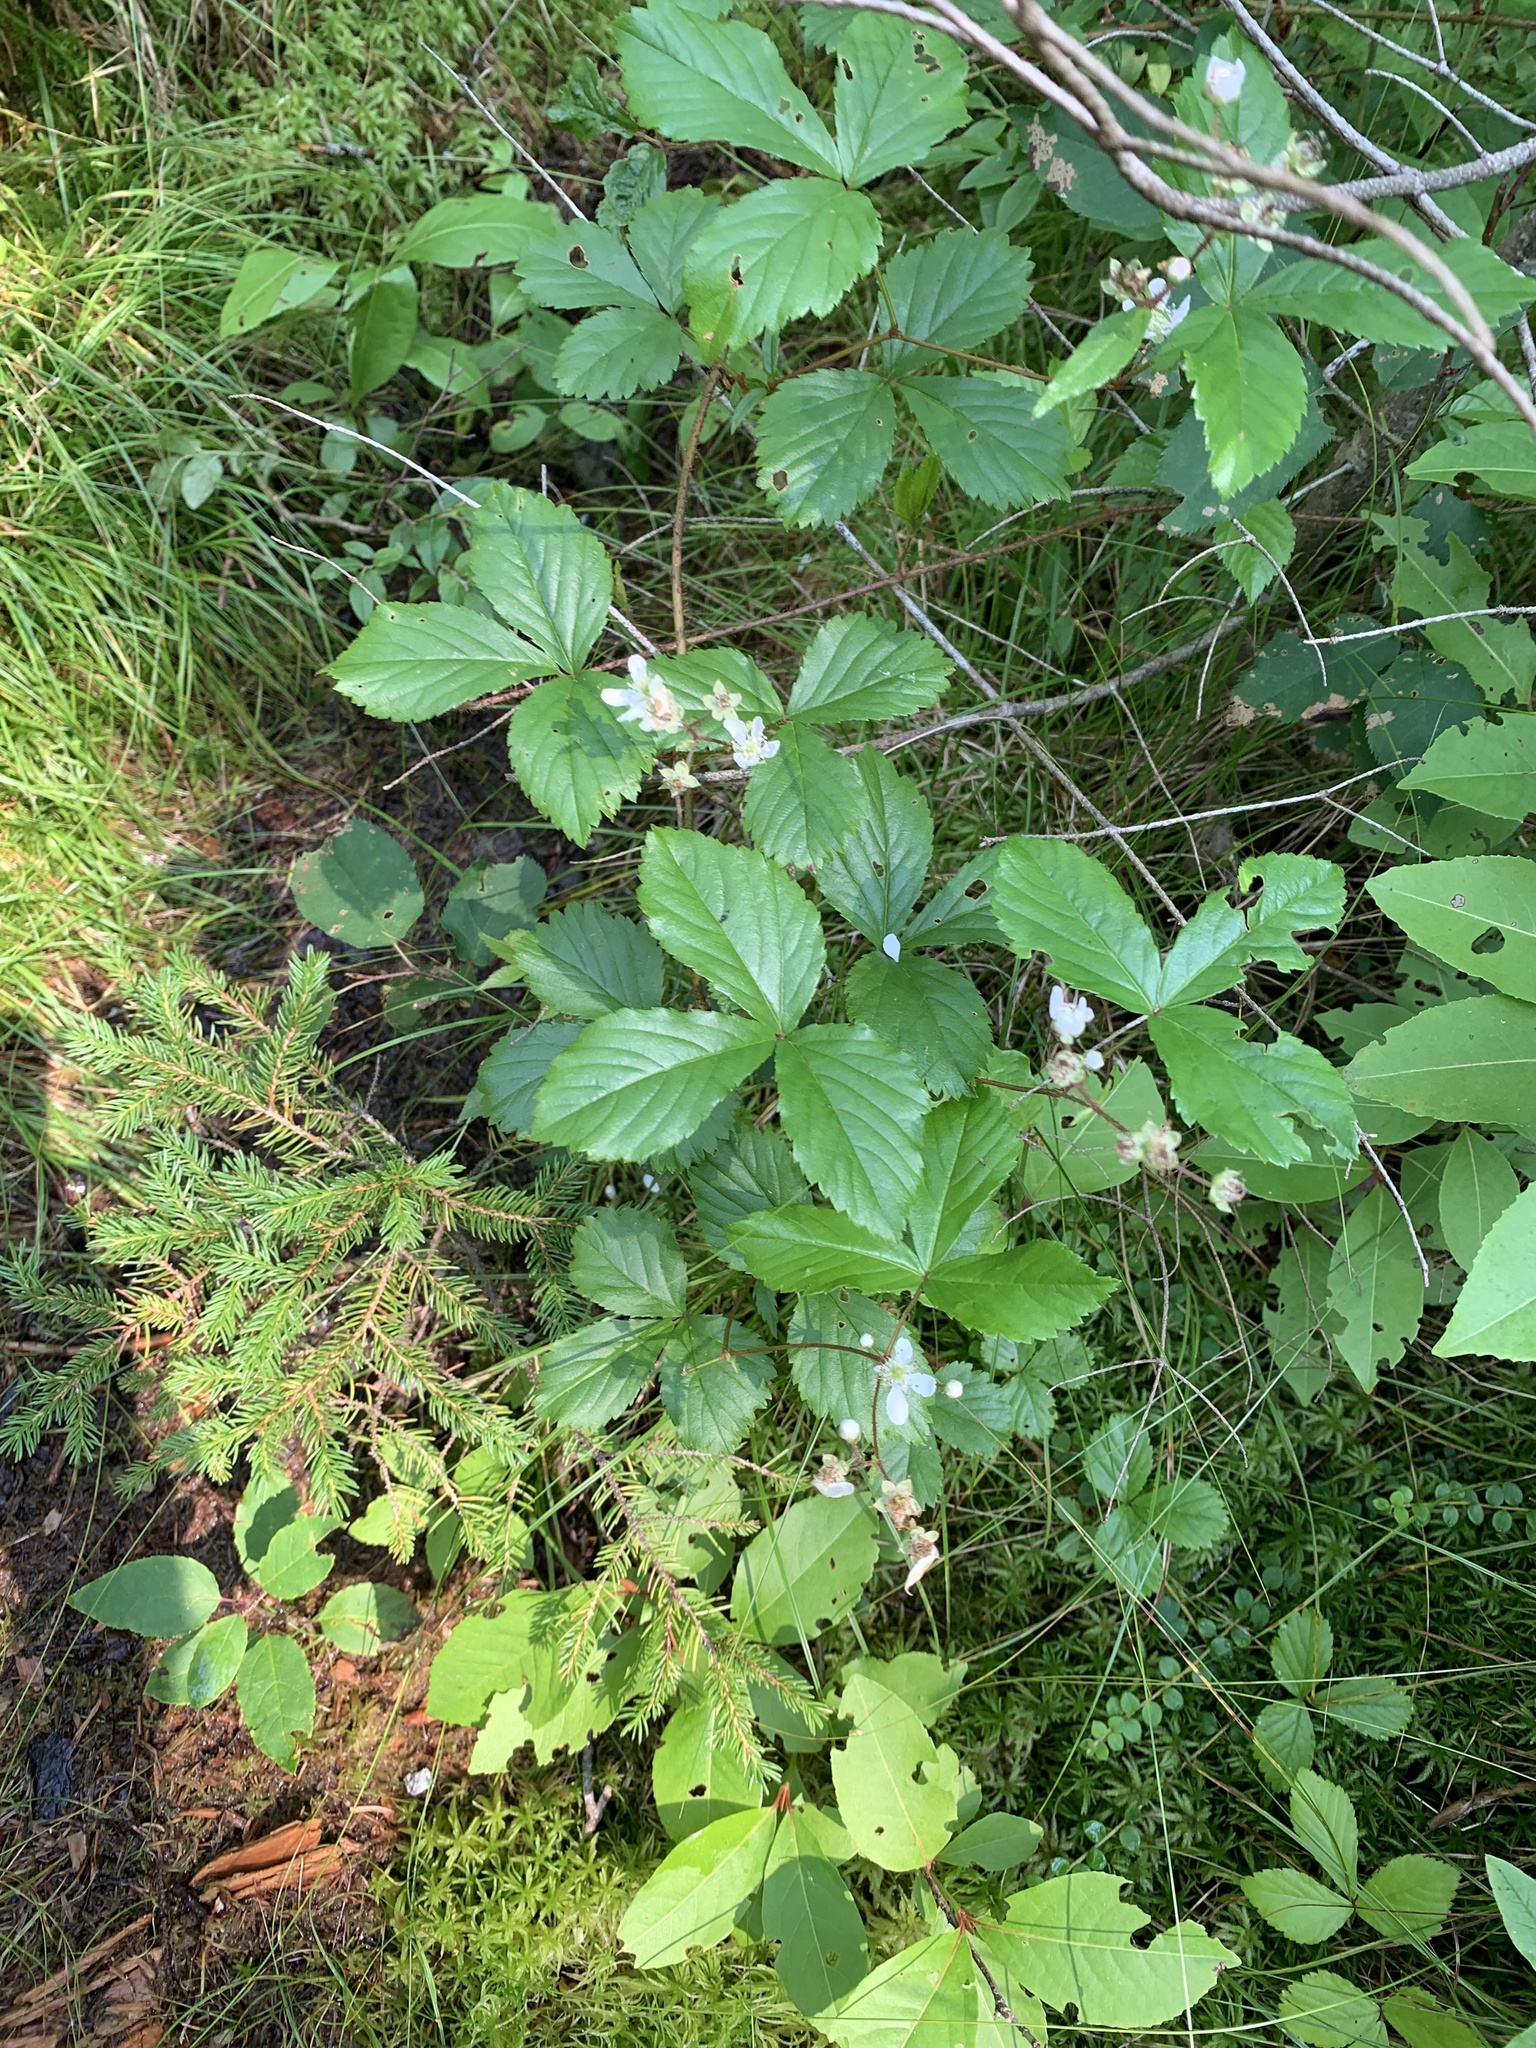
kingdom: Plantae
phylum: Tracheophyta
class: Magnoliopsida
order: Rosales
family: Rosaceae
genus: Rubus
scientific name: Rubus hispidus
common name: Running blackberry
